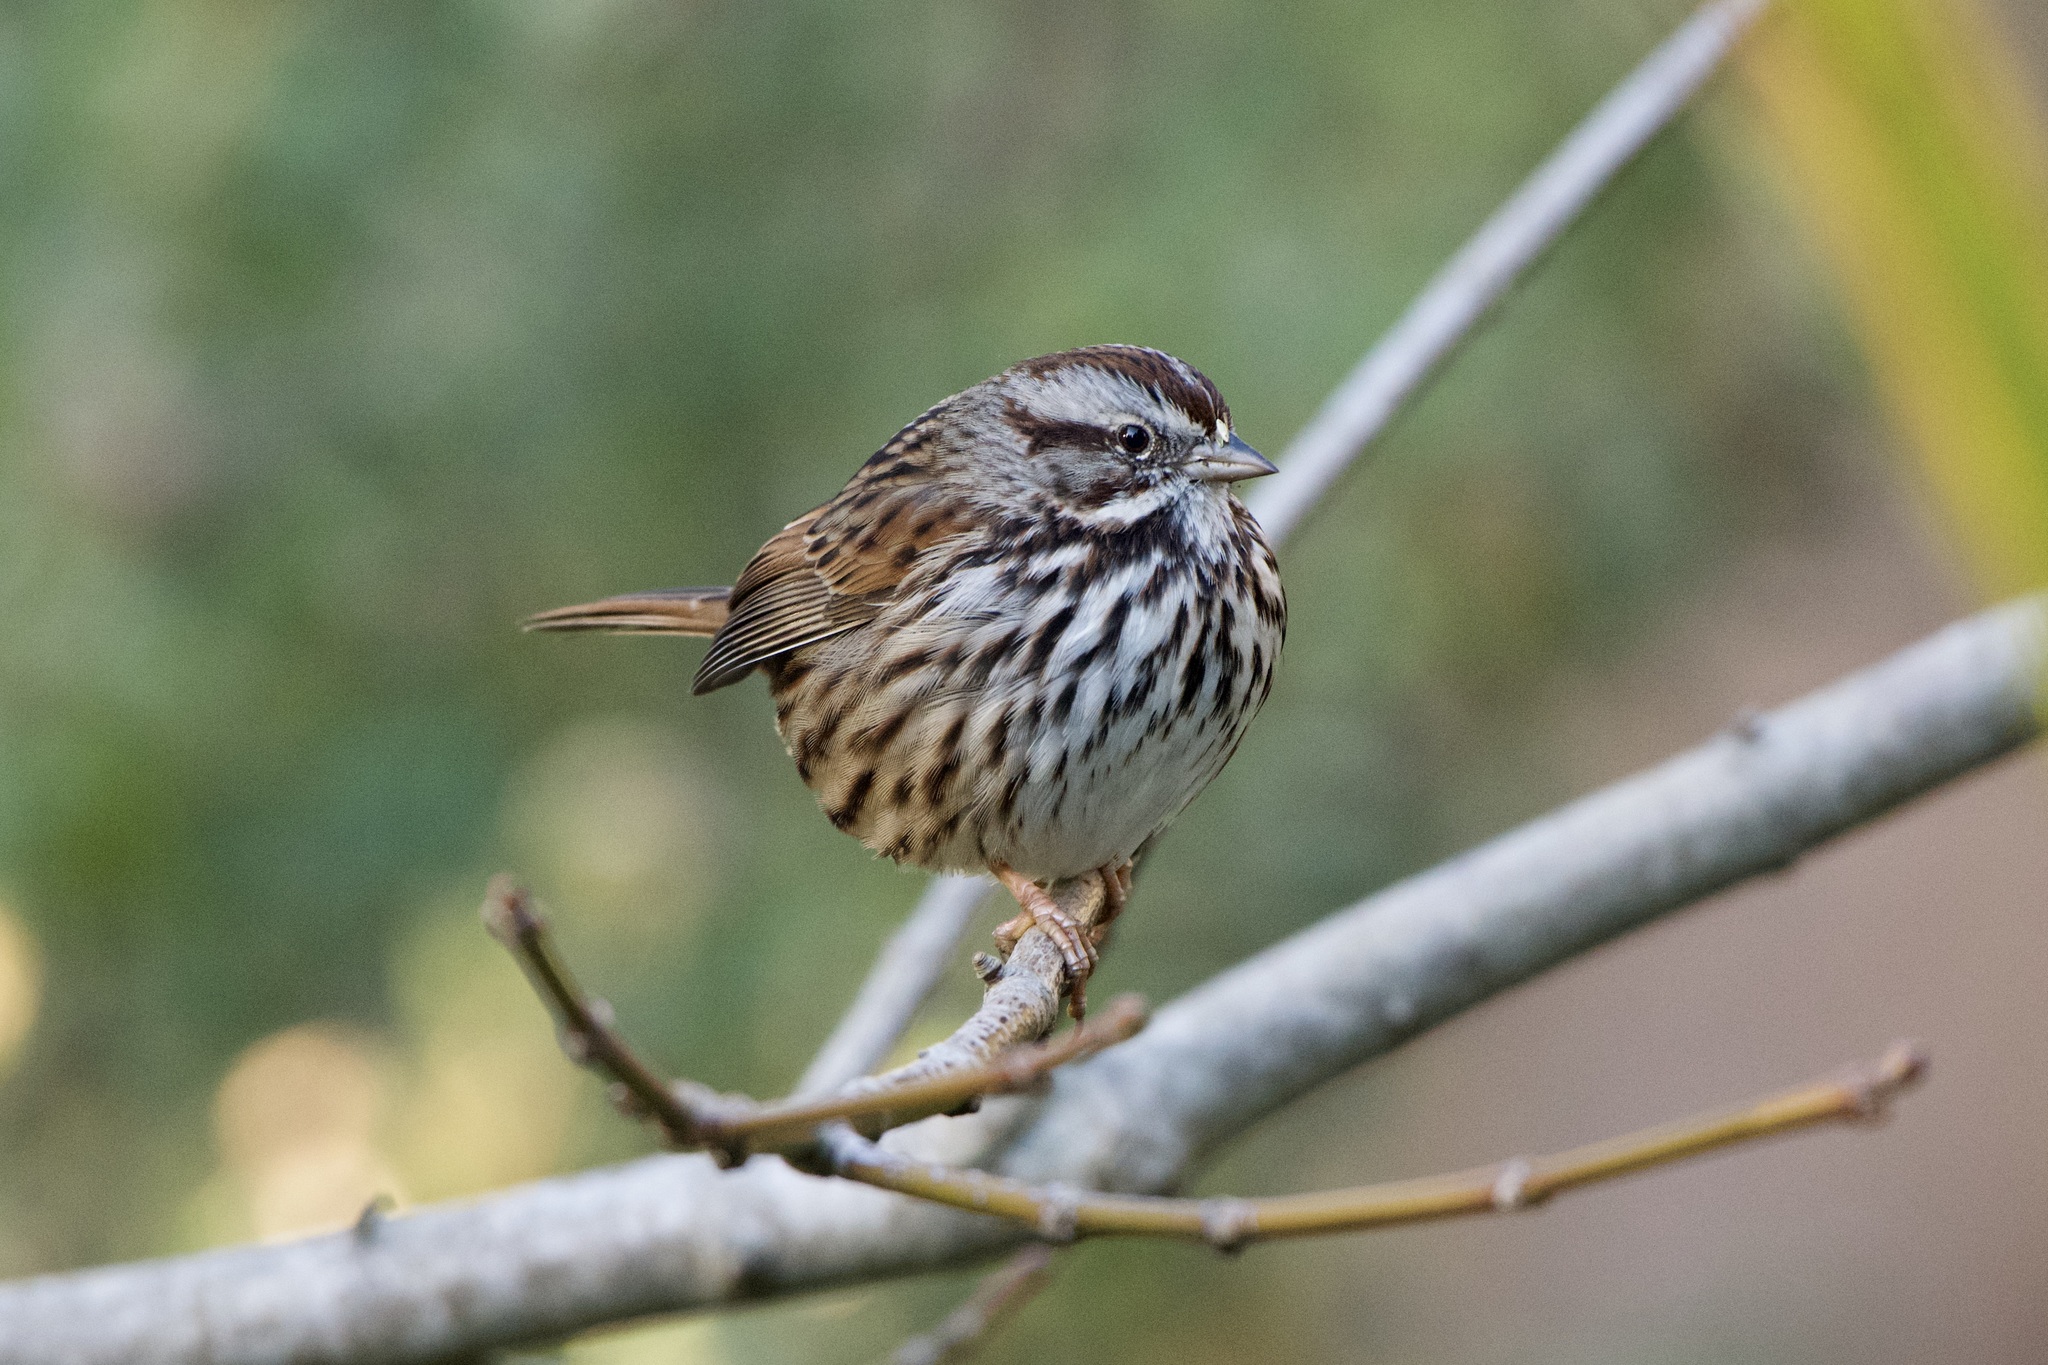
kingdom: Animalia
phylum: Chordata
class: Aves
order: Passeriformes
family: Passerellidae
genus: Melospiza
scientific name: Melospiza melodia
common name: Song sparrow
